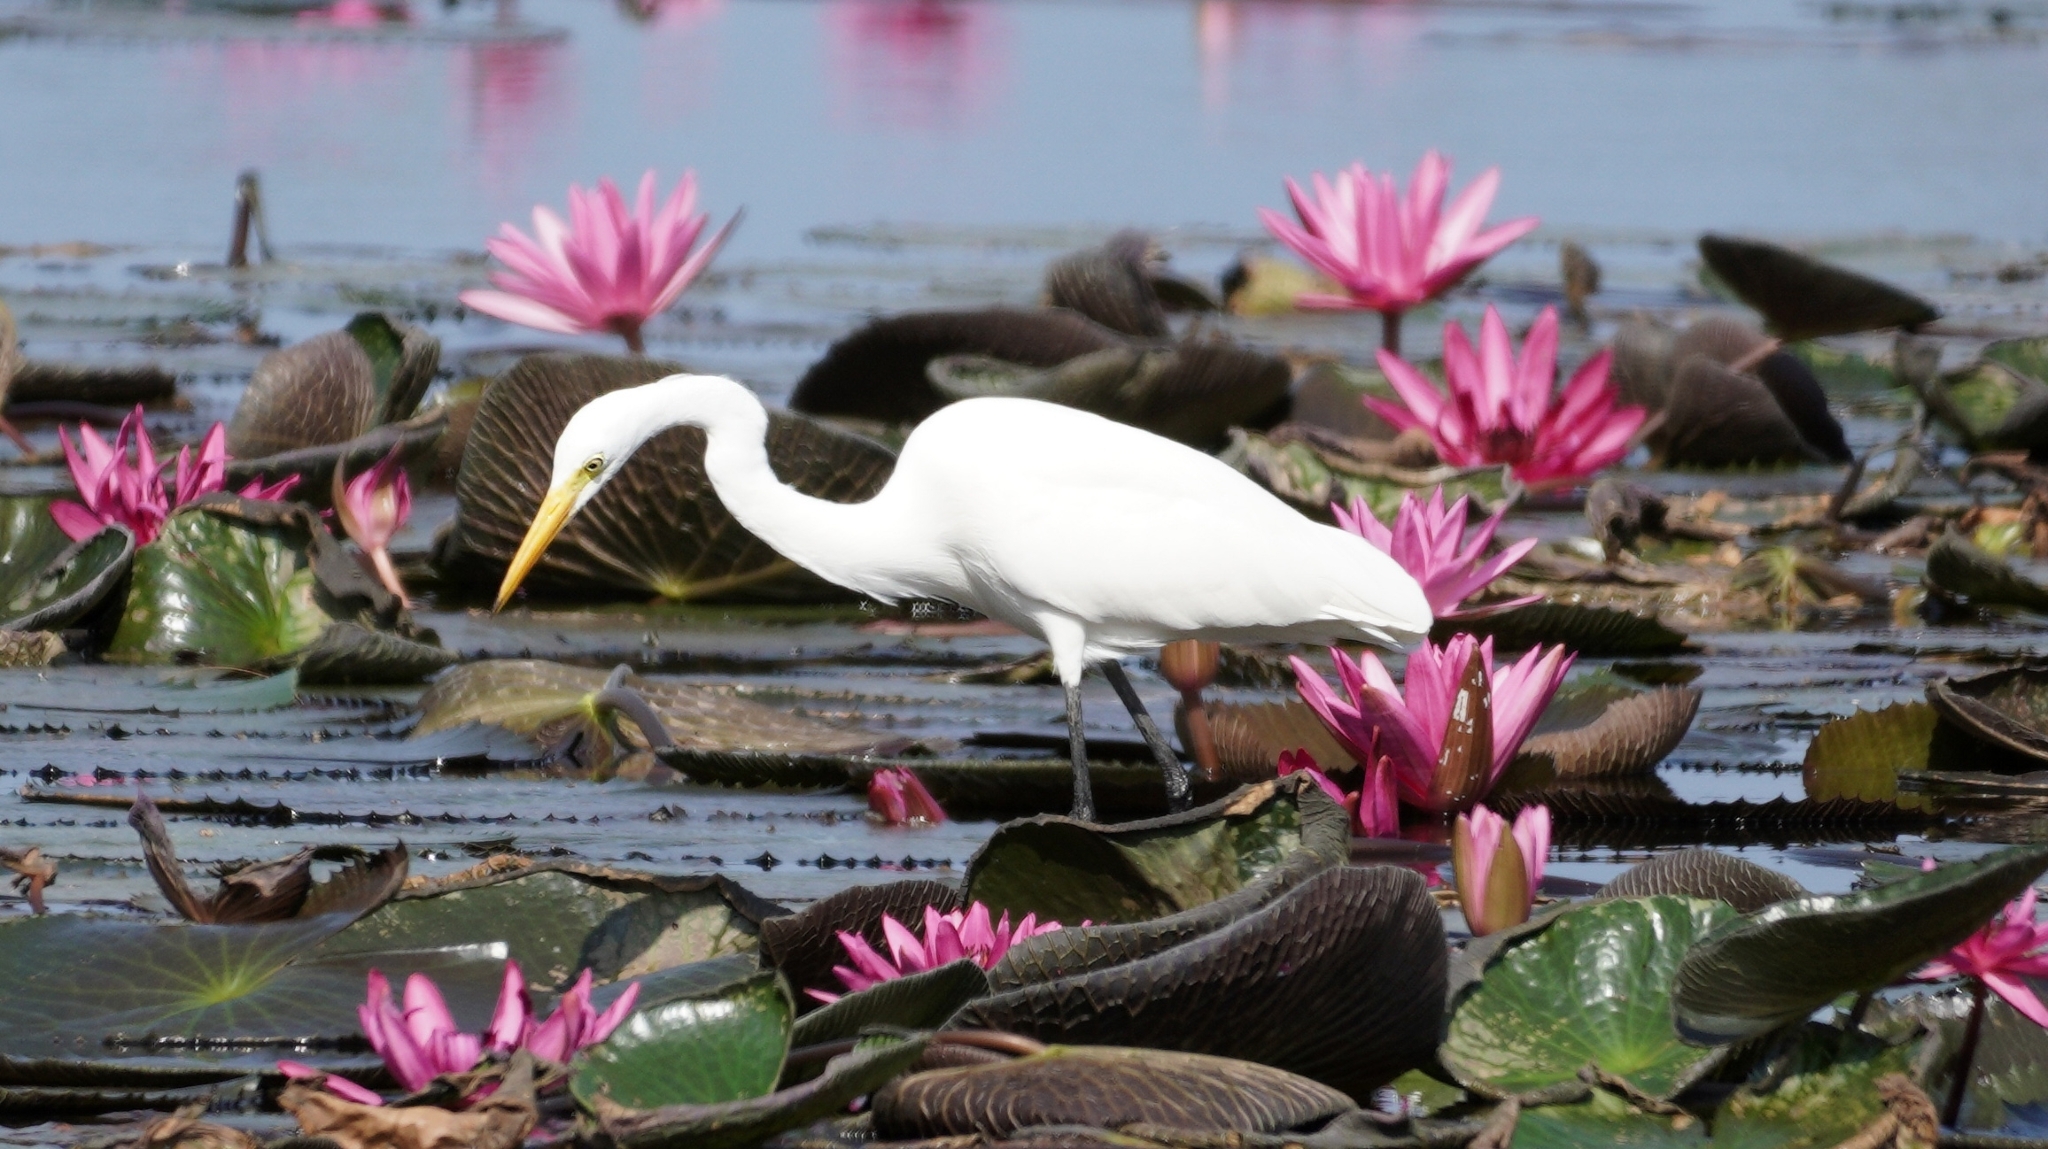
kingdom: Animalia
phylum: Chordata
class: Aves
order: Pelecaniformes
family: Ardeidae
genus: Egretta
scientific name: Egretta intermedia
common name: Intermediate egret
